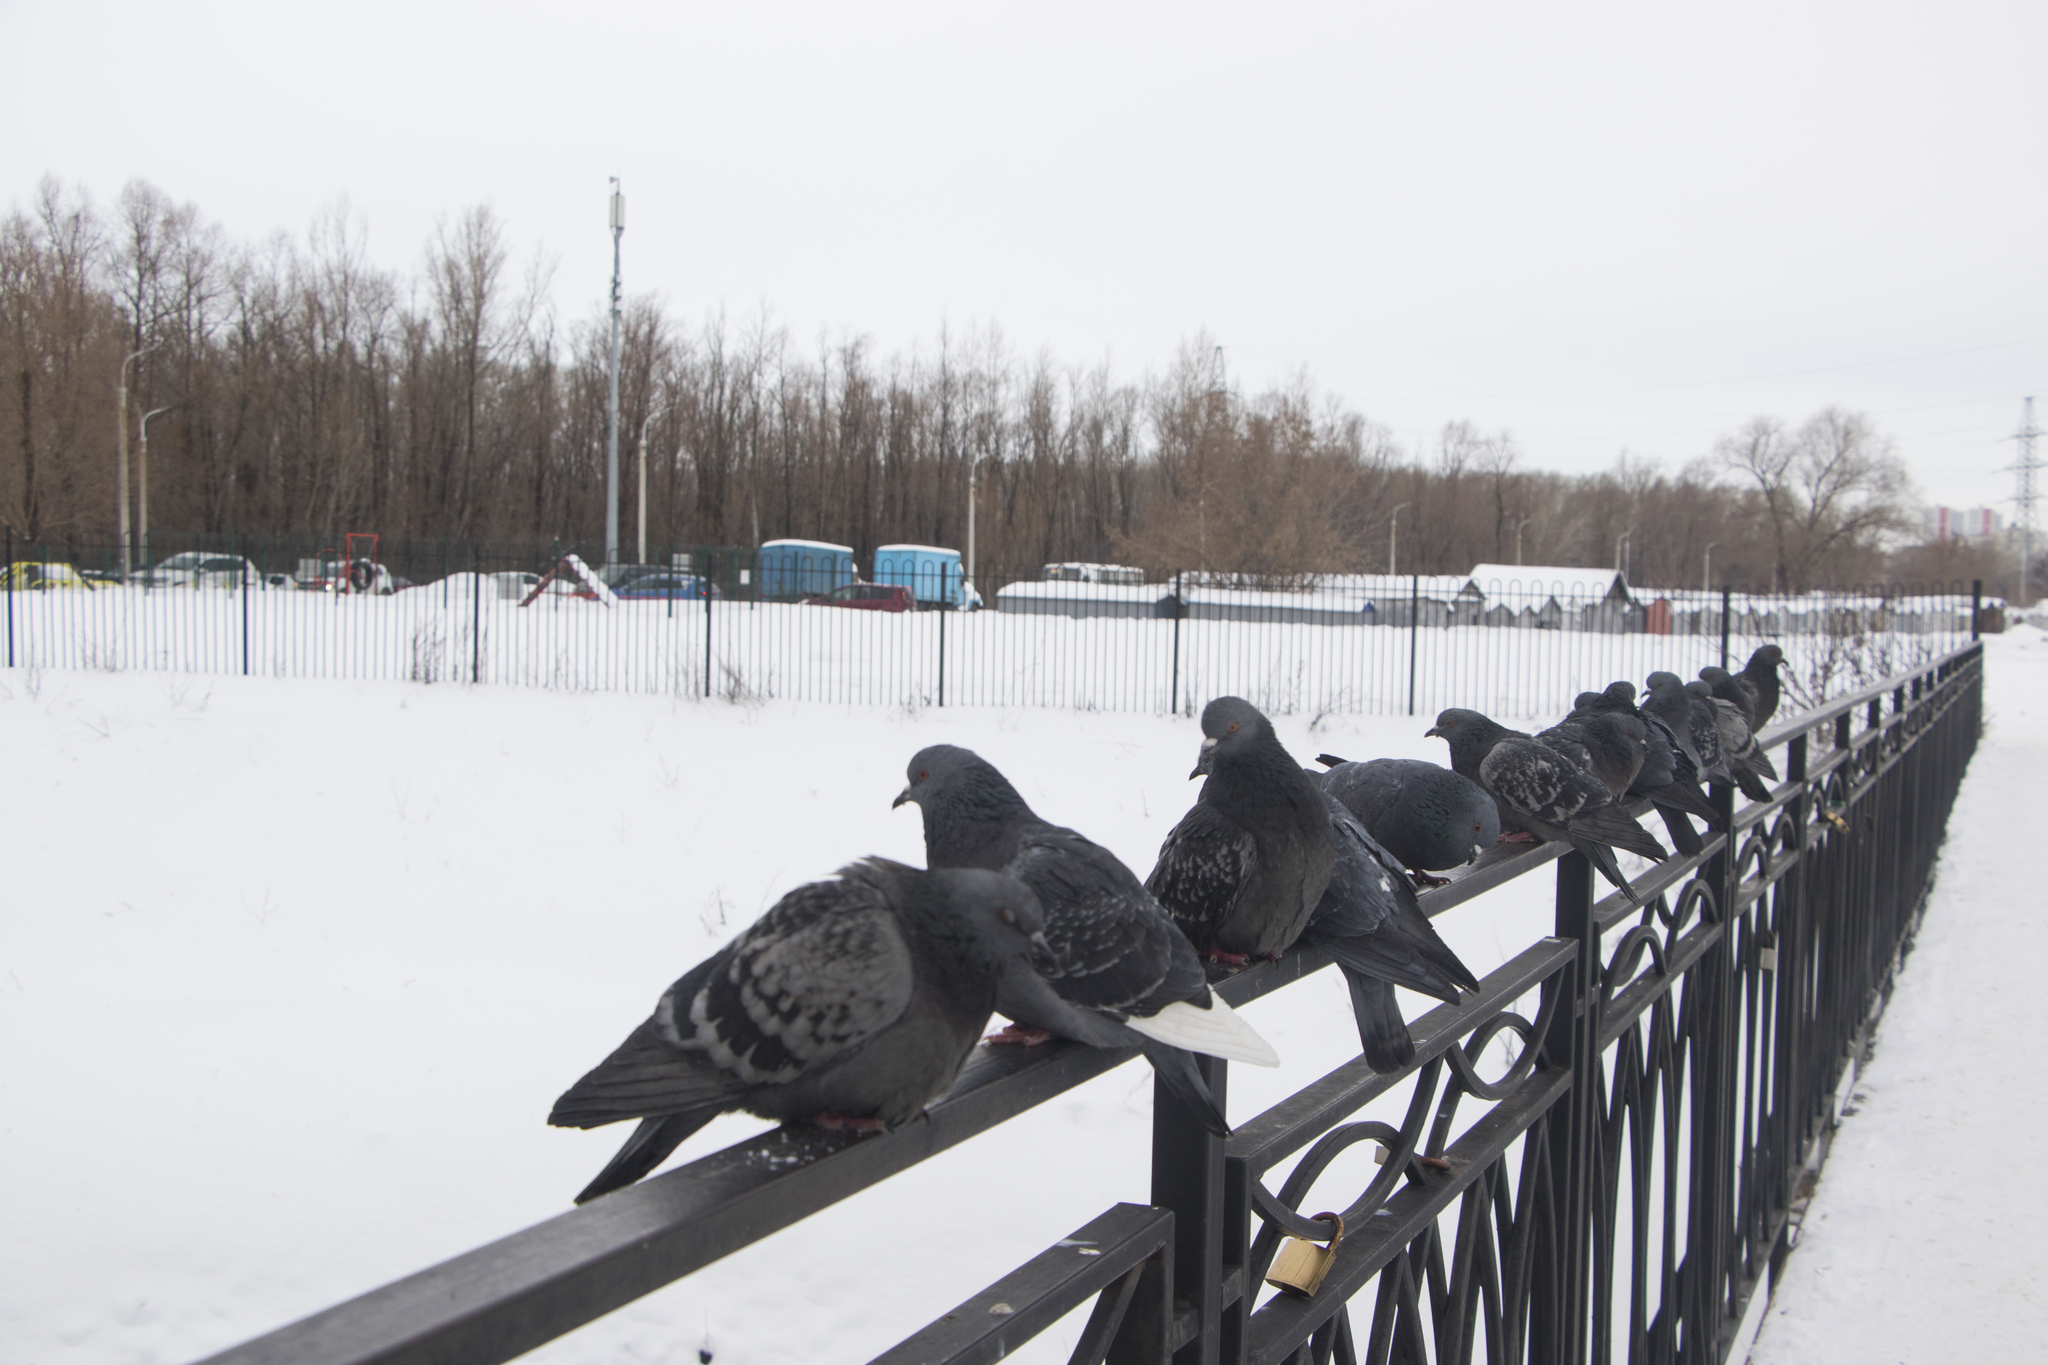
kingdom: Animalia
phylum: Chordata
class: Aves
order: Columbiformes
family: Columbidae
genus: Columba
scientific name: Columba livia
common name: Rock pigeon
